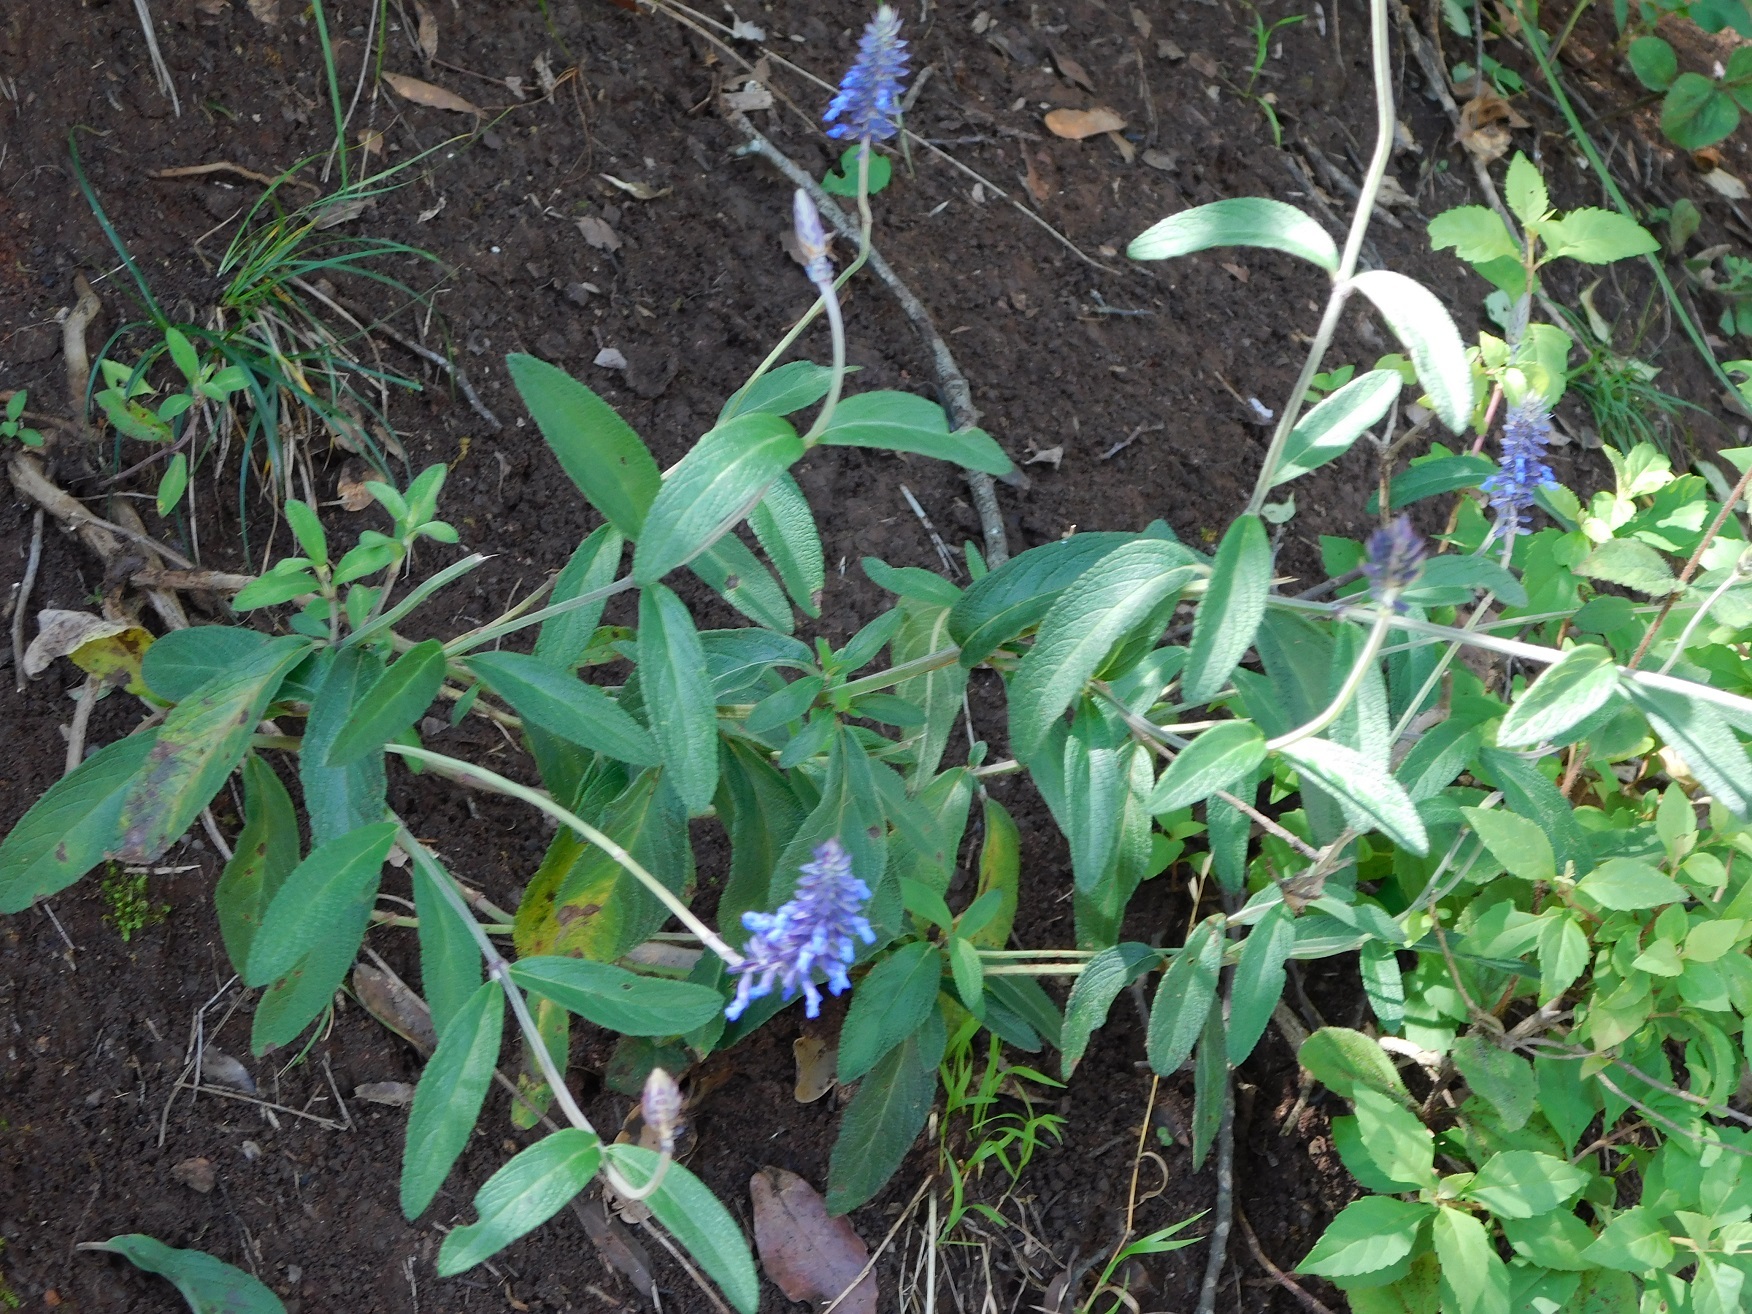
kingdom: Plantae
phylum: Tracheophyta
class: Magnoliopsida
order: Lamiales
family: Lamiaceae
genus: Salvia
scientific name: Salvia lavanduloides
